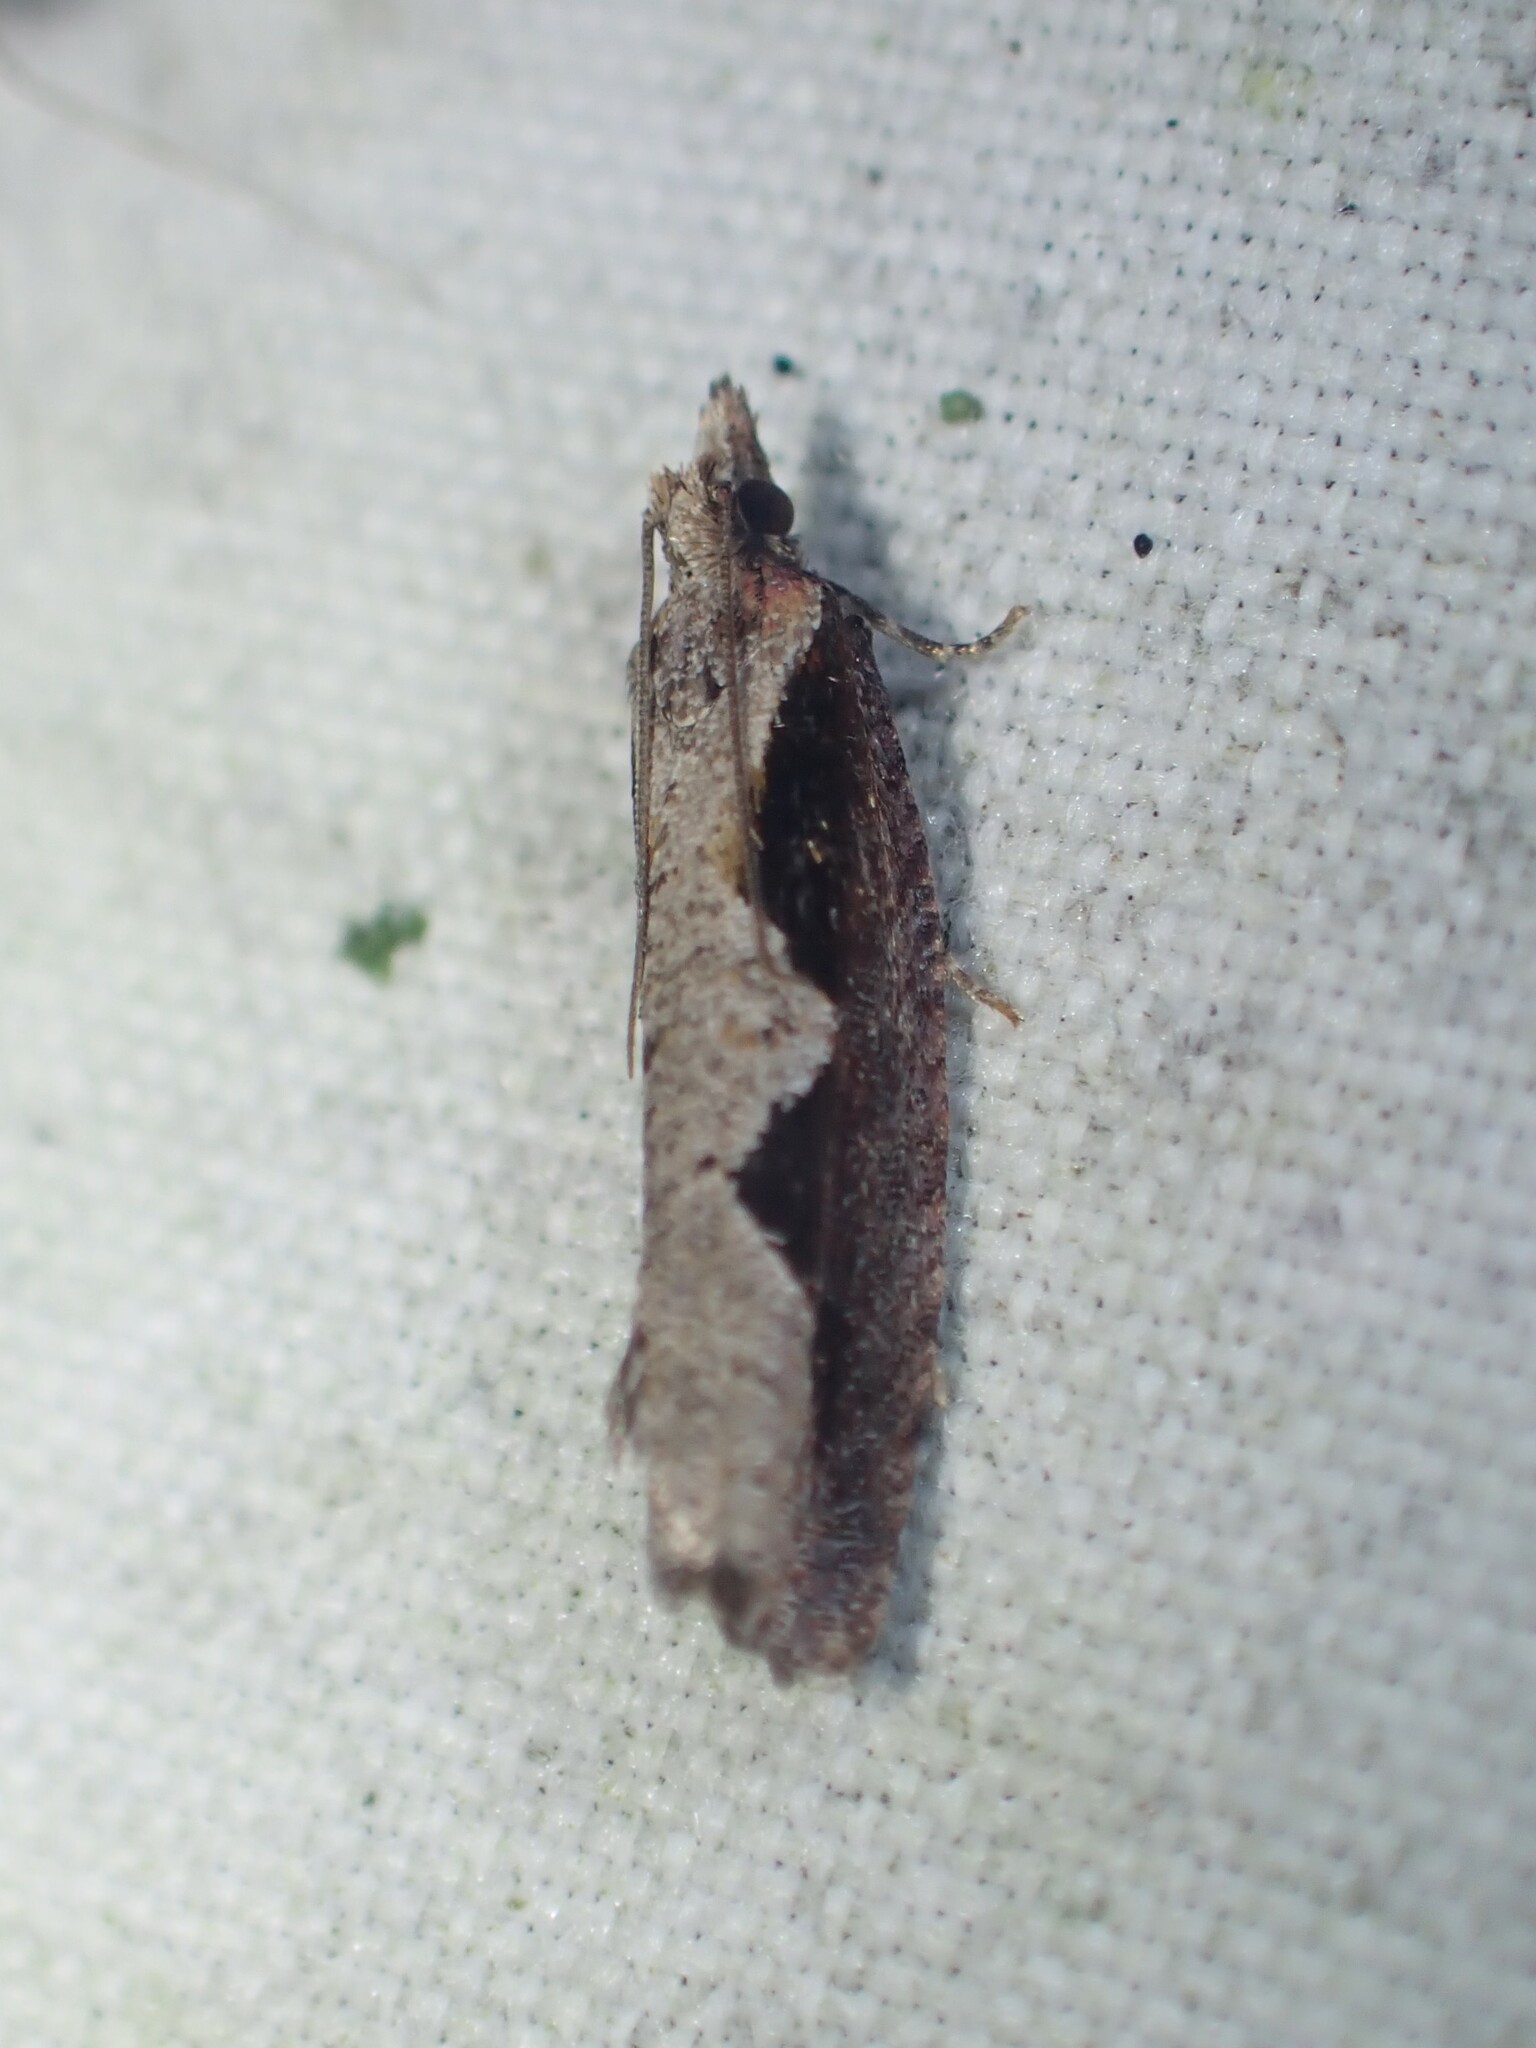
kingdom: Animalia
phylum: Arthropoda
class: Insecta
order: Lepidoptera
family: Tortricidae
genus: Epinotia
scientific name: Epinotia lindana
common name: Diamondback epinotia moth
